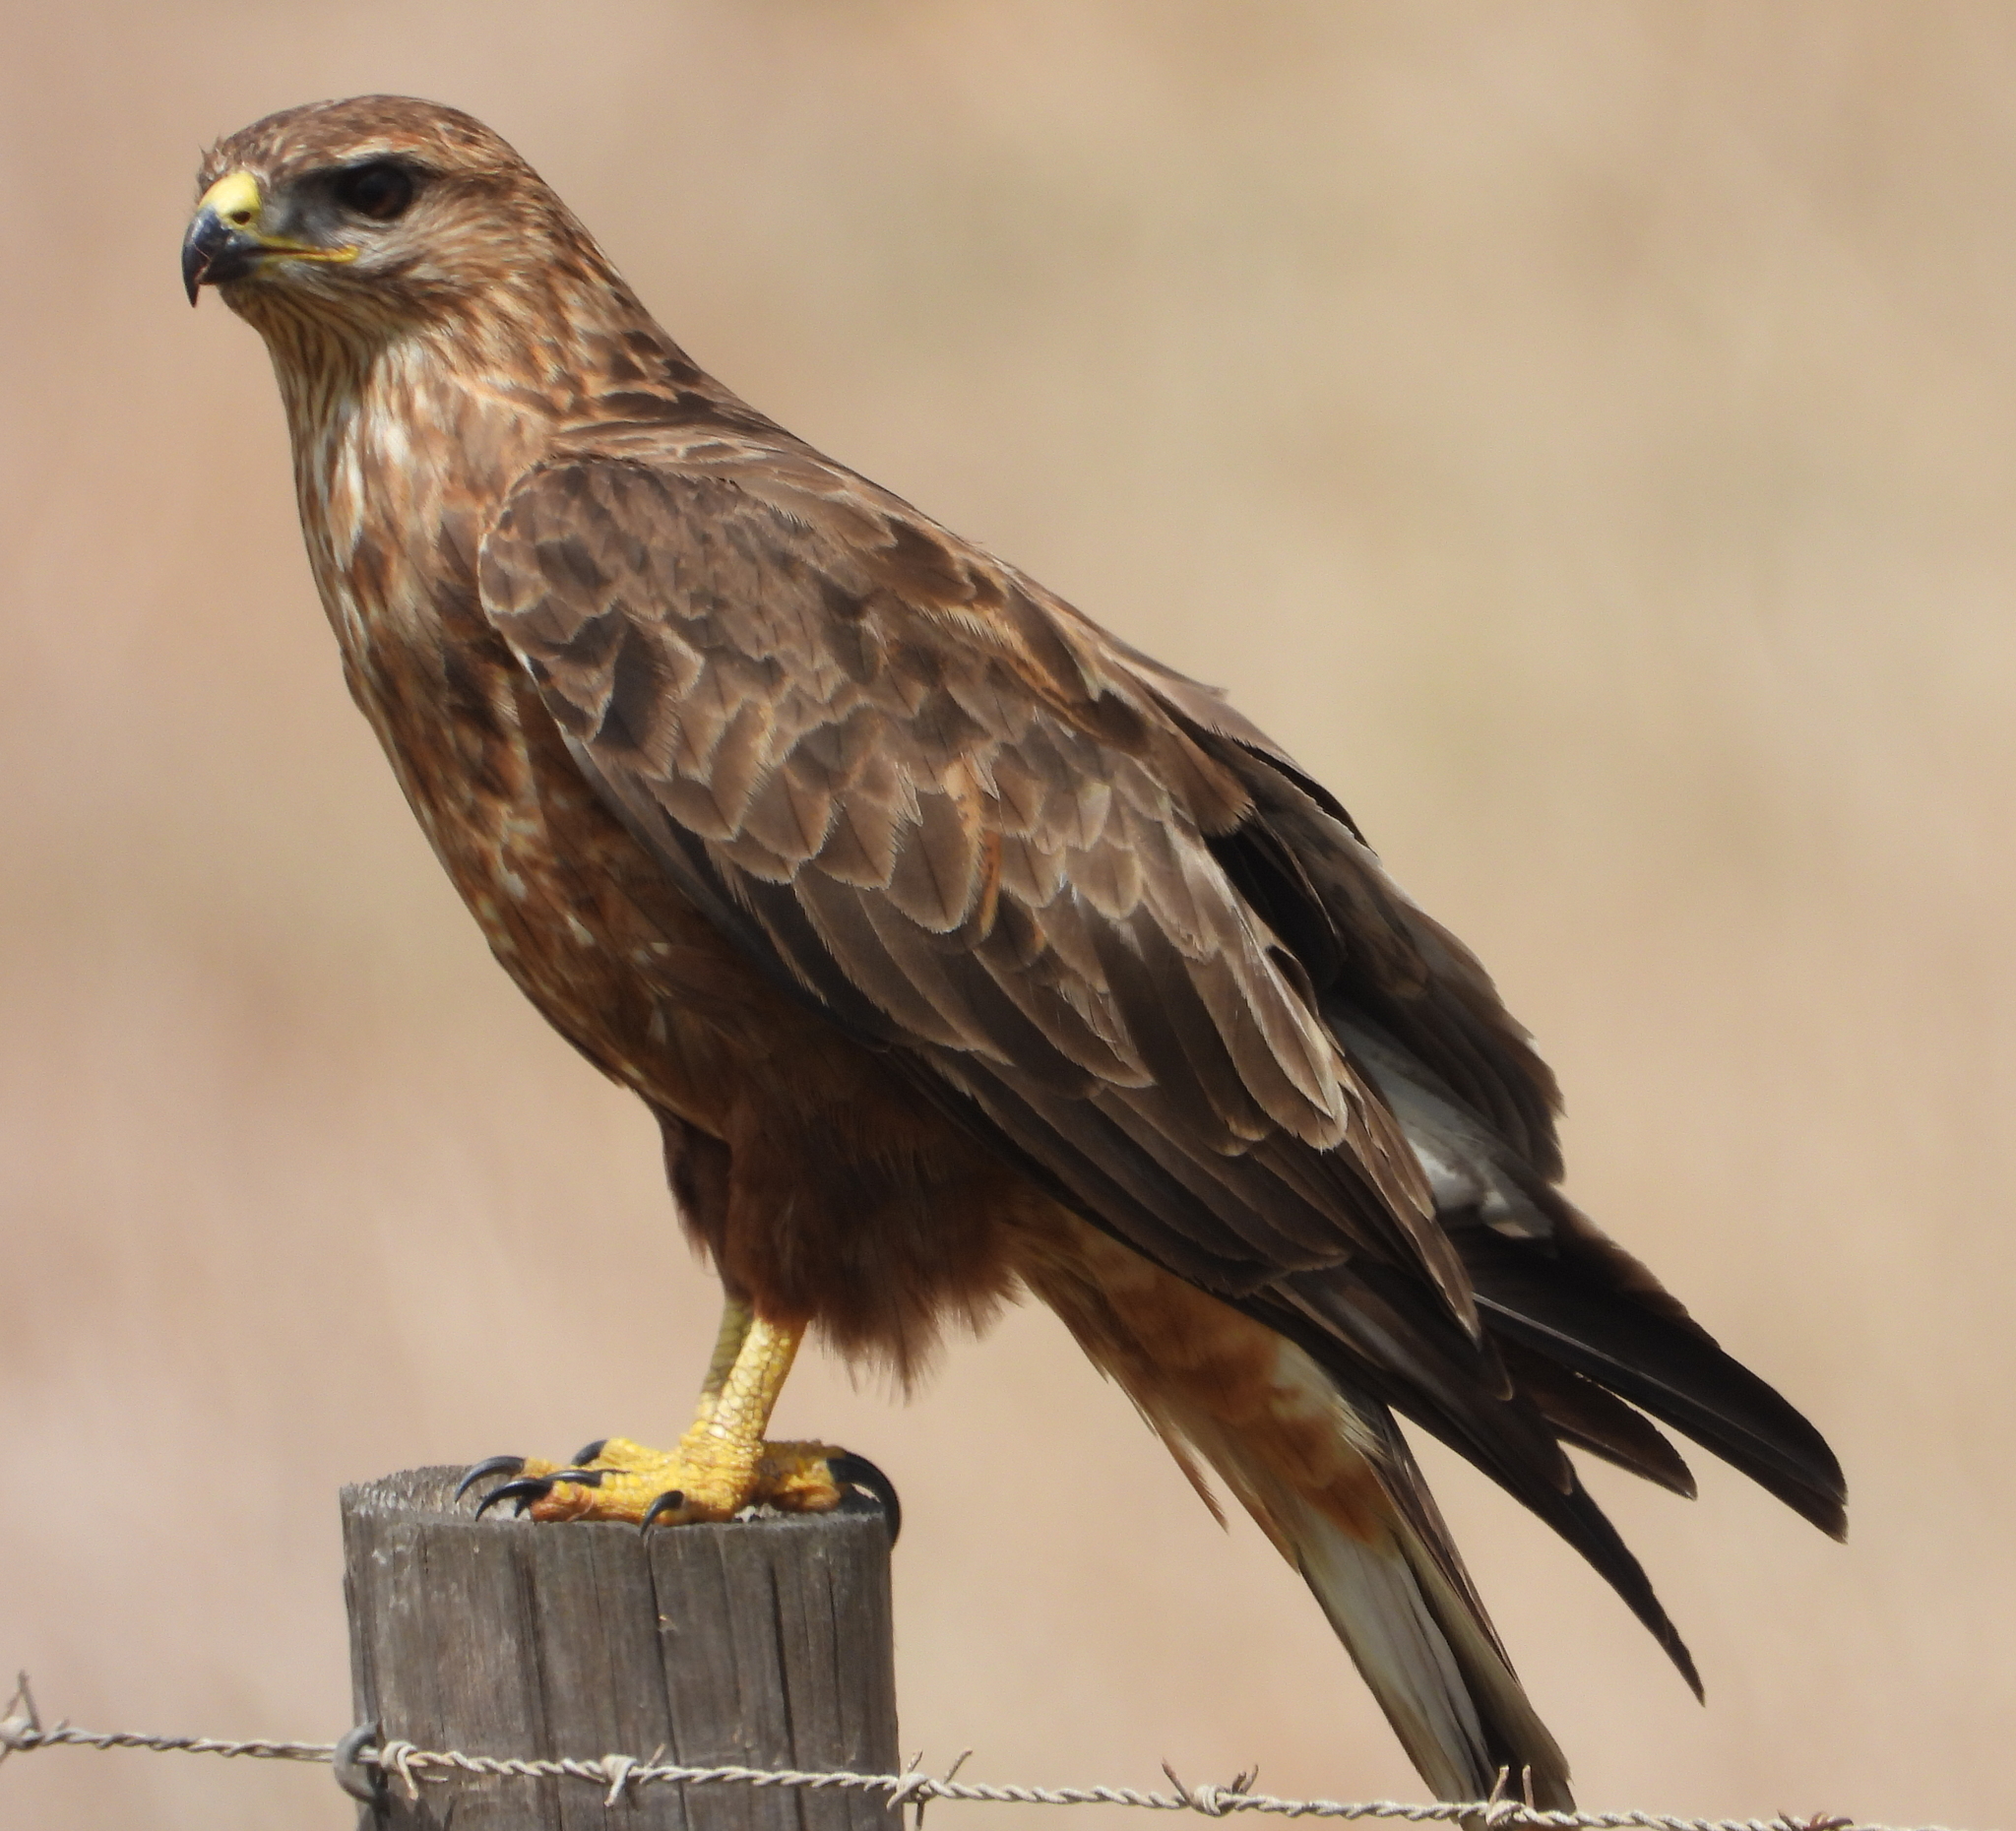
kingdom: Animalia
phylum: Chordata
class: Aves
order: Accipitriformes
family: Accipitridae
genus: Buteo
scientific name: Buteo buteo
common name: Common buzzard
